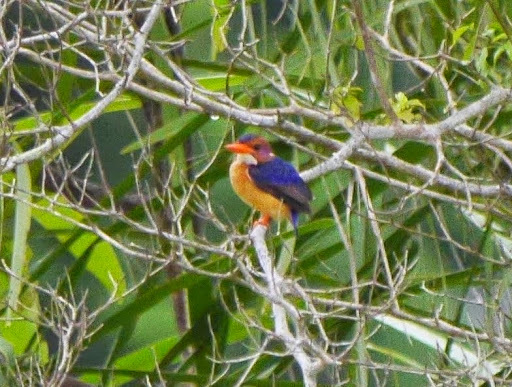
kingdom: Animalia
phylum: Chordata
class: Aves
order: Coraciiformes
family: Alcedinidae
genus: Ispidina
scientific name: Ispidina picta
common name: African pygmy-kingfisher
